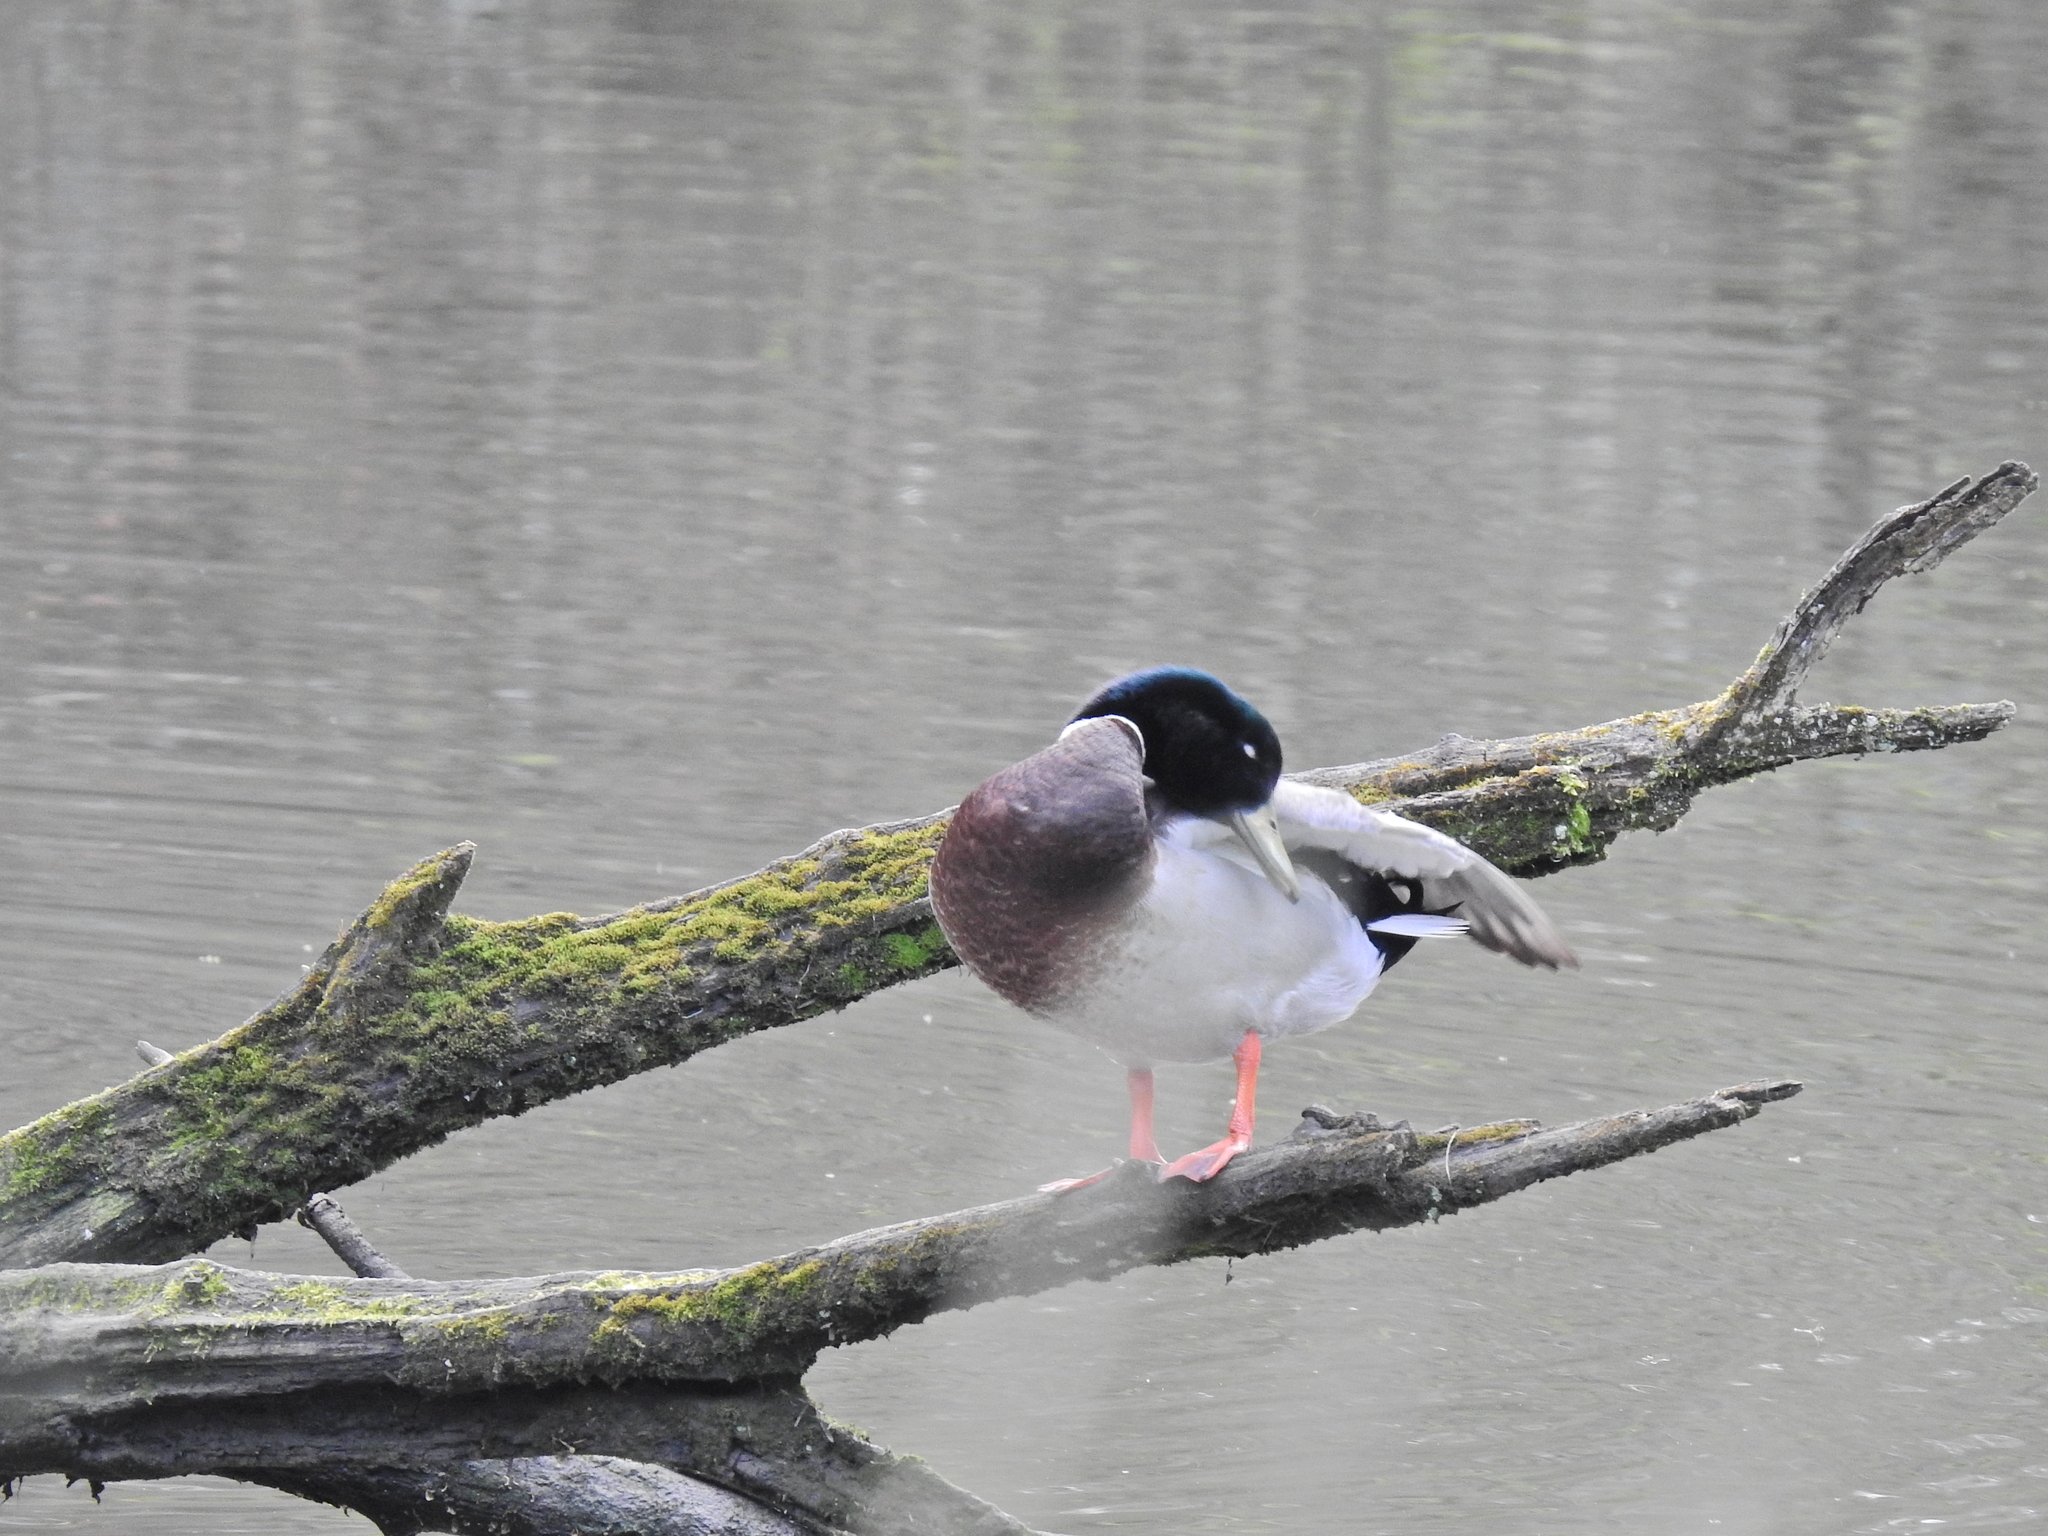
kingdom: Animalia
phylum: Chordata
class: Aves
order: Anseriformes
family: Anatidae
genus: Anas
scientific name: Anas platyrhynchos
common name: Mallard
